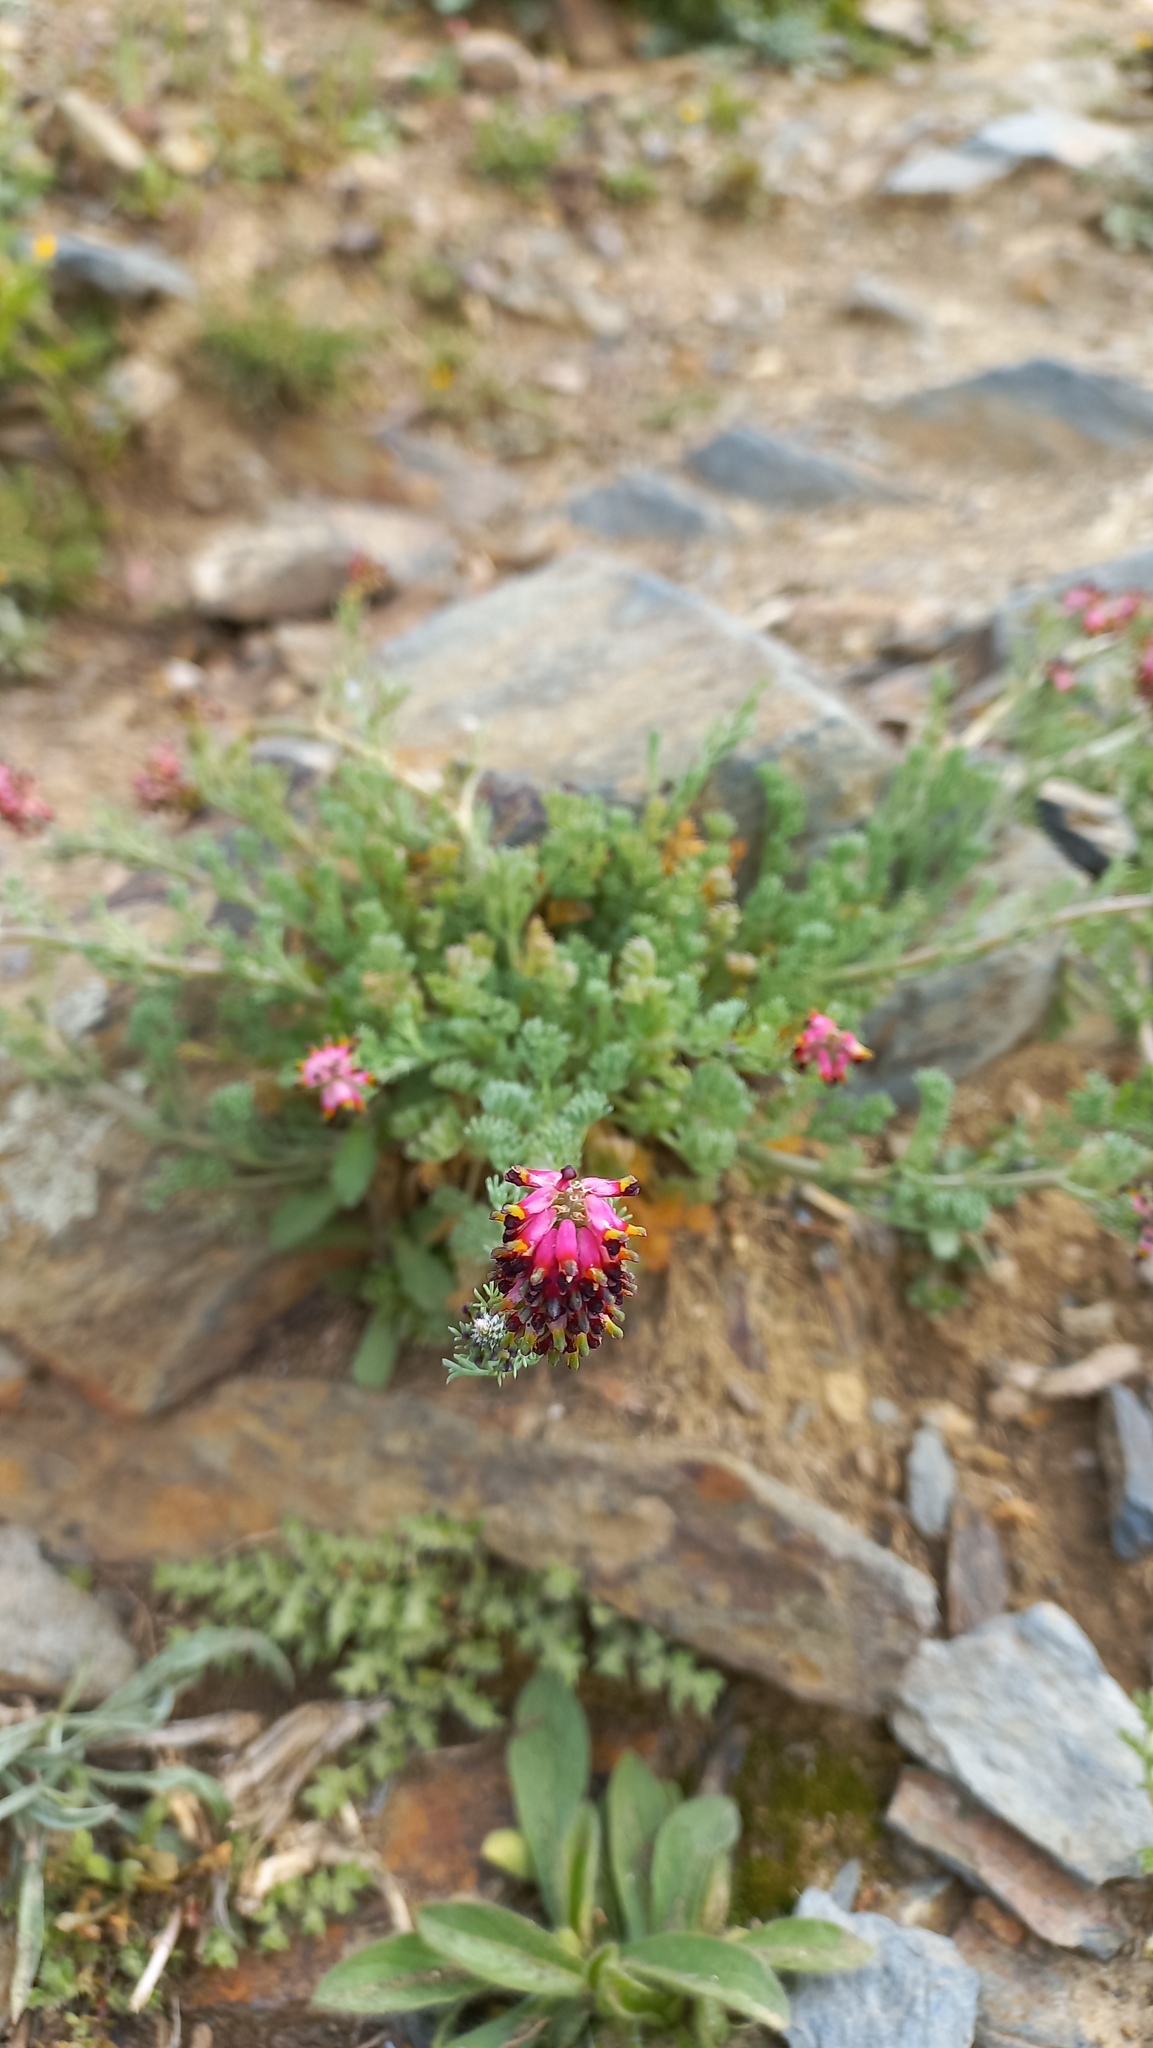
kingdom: Plantae
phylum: Tracheophyta
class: Magnoliopsida
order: Ranunculales
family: Papaveraceae
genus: Platycapnos
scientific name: Platycapnos spicata
